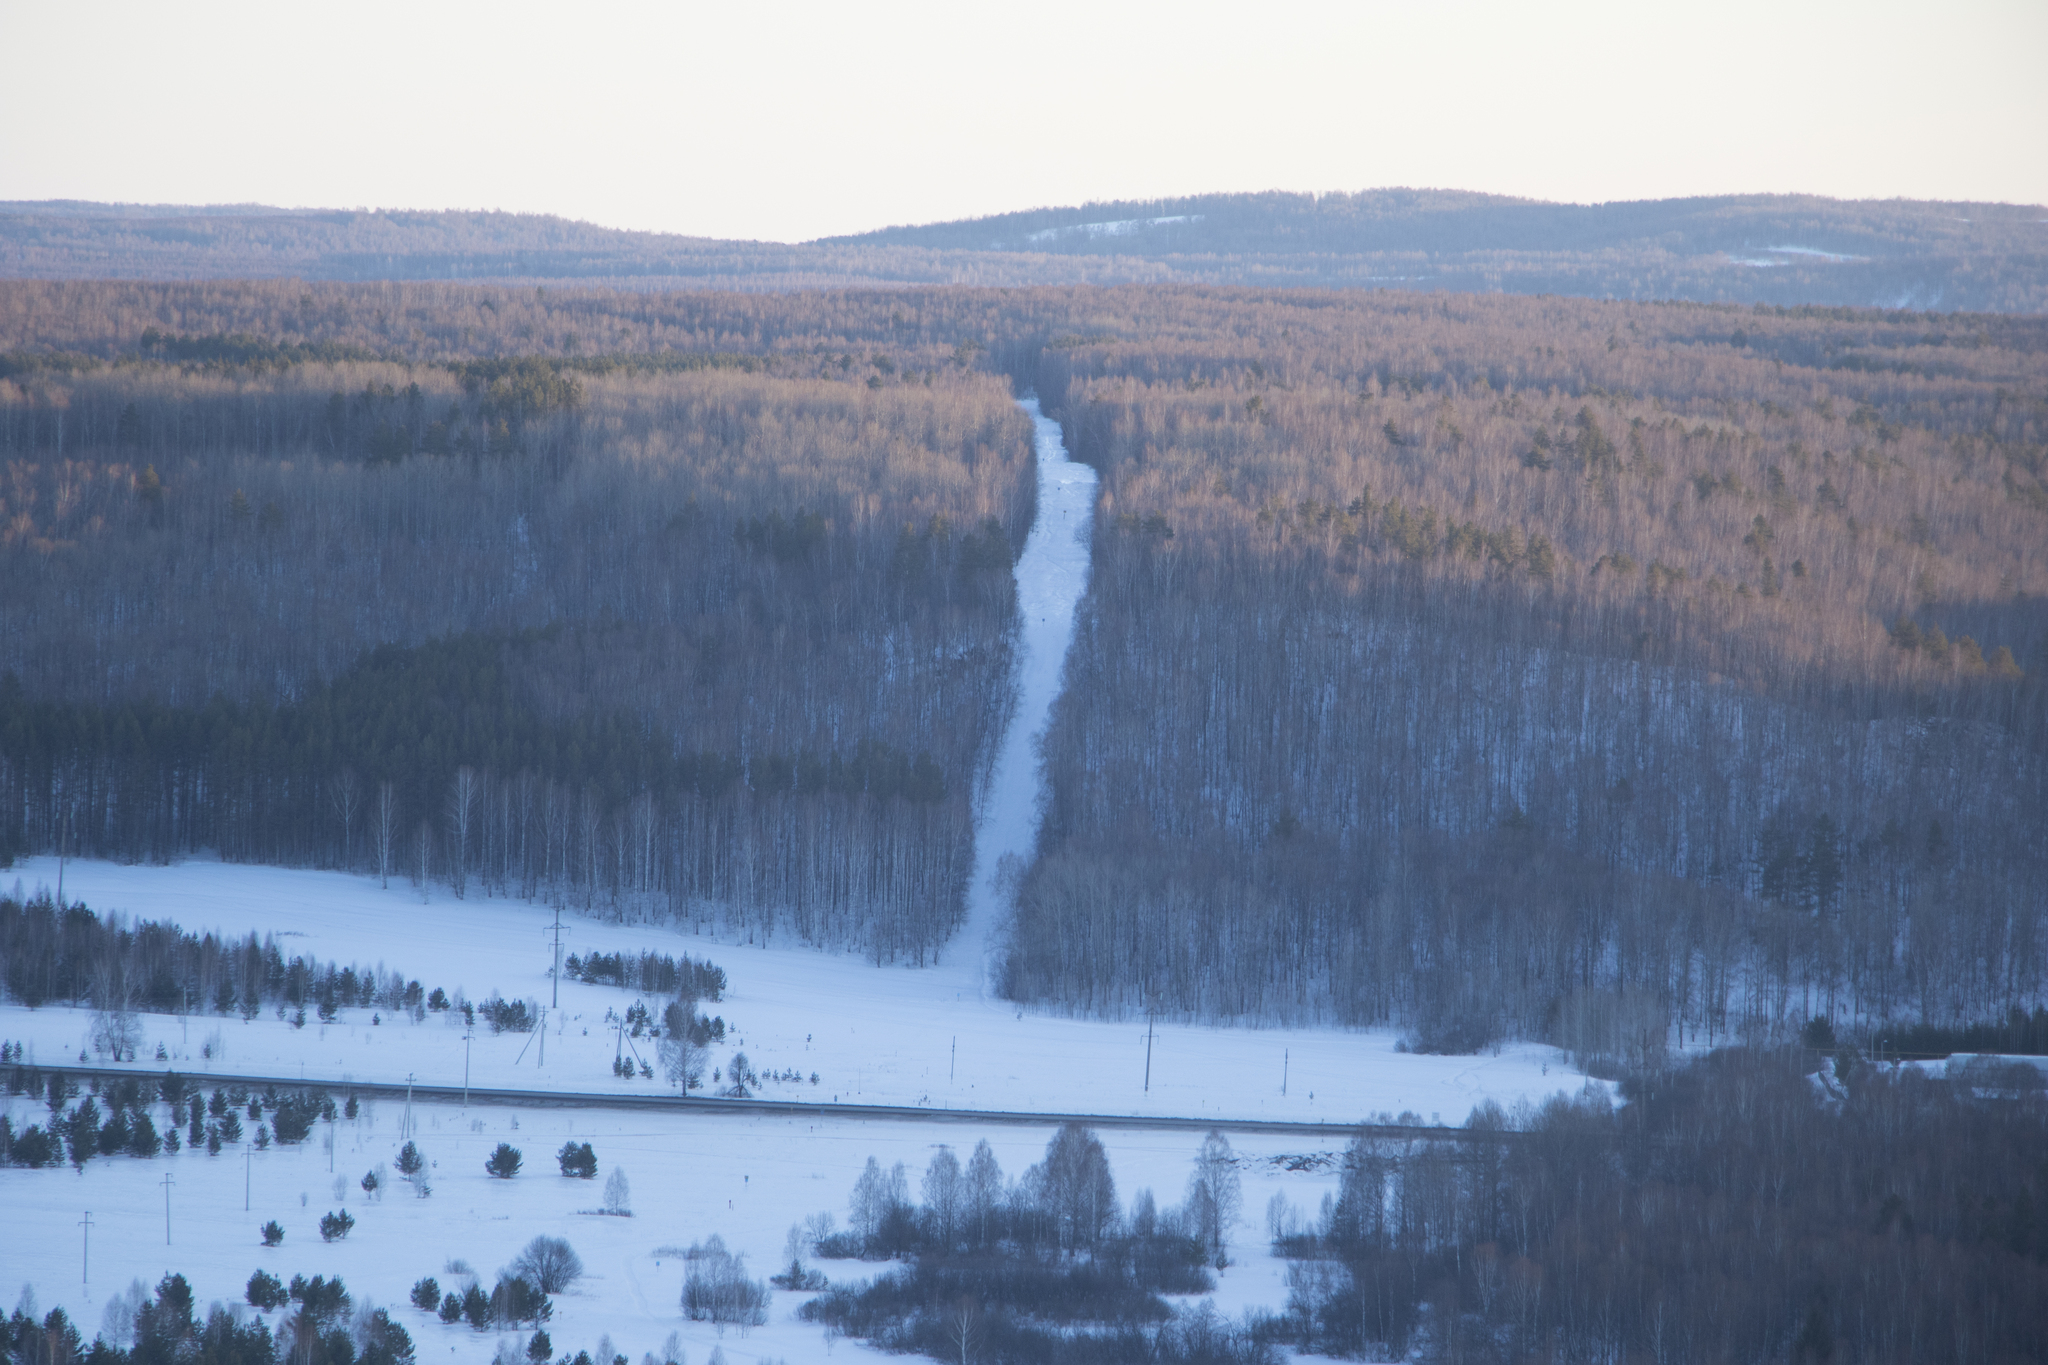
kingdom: Plantae
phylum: Tracheophyta
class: Pinopsida
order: Pinales
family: Pinaceae
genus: Pinus
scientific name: Pinus sylvestris
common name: Scots pine
